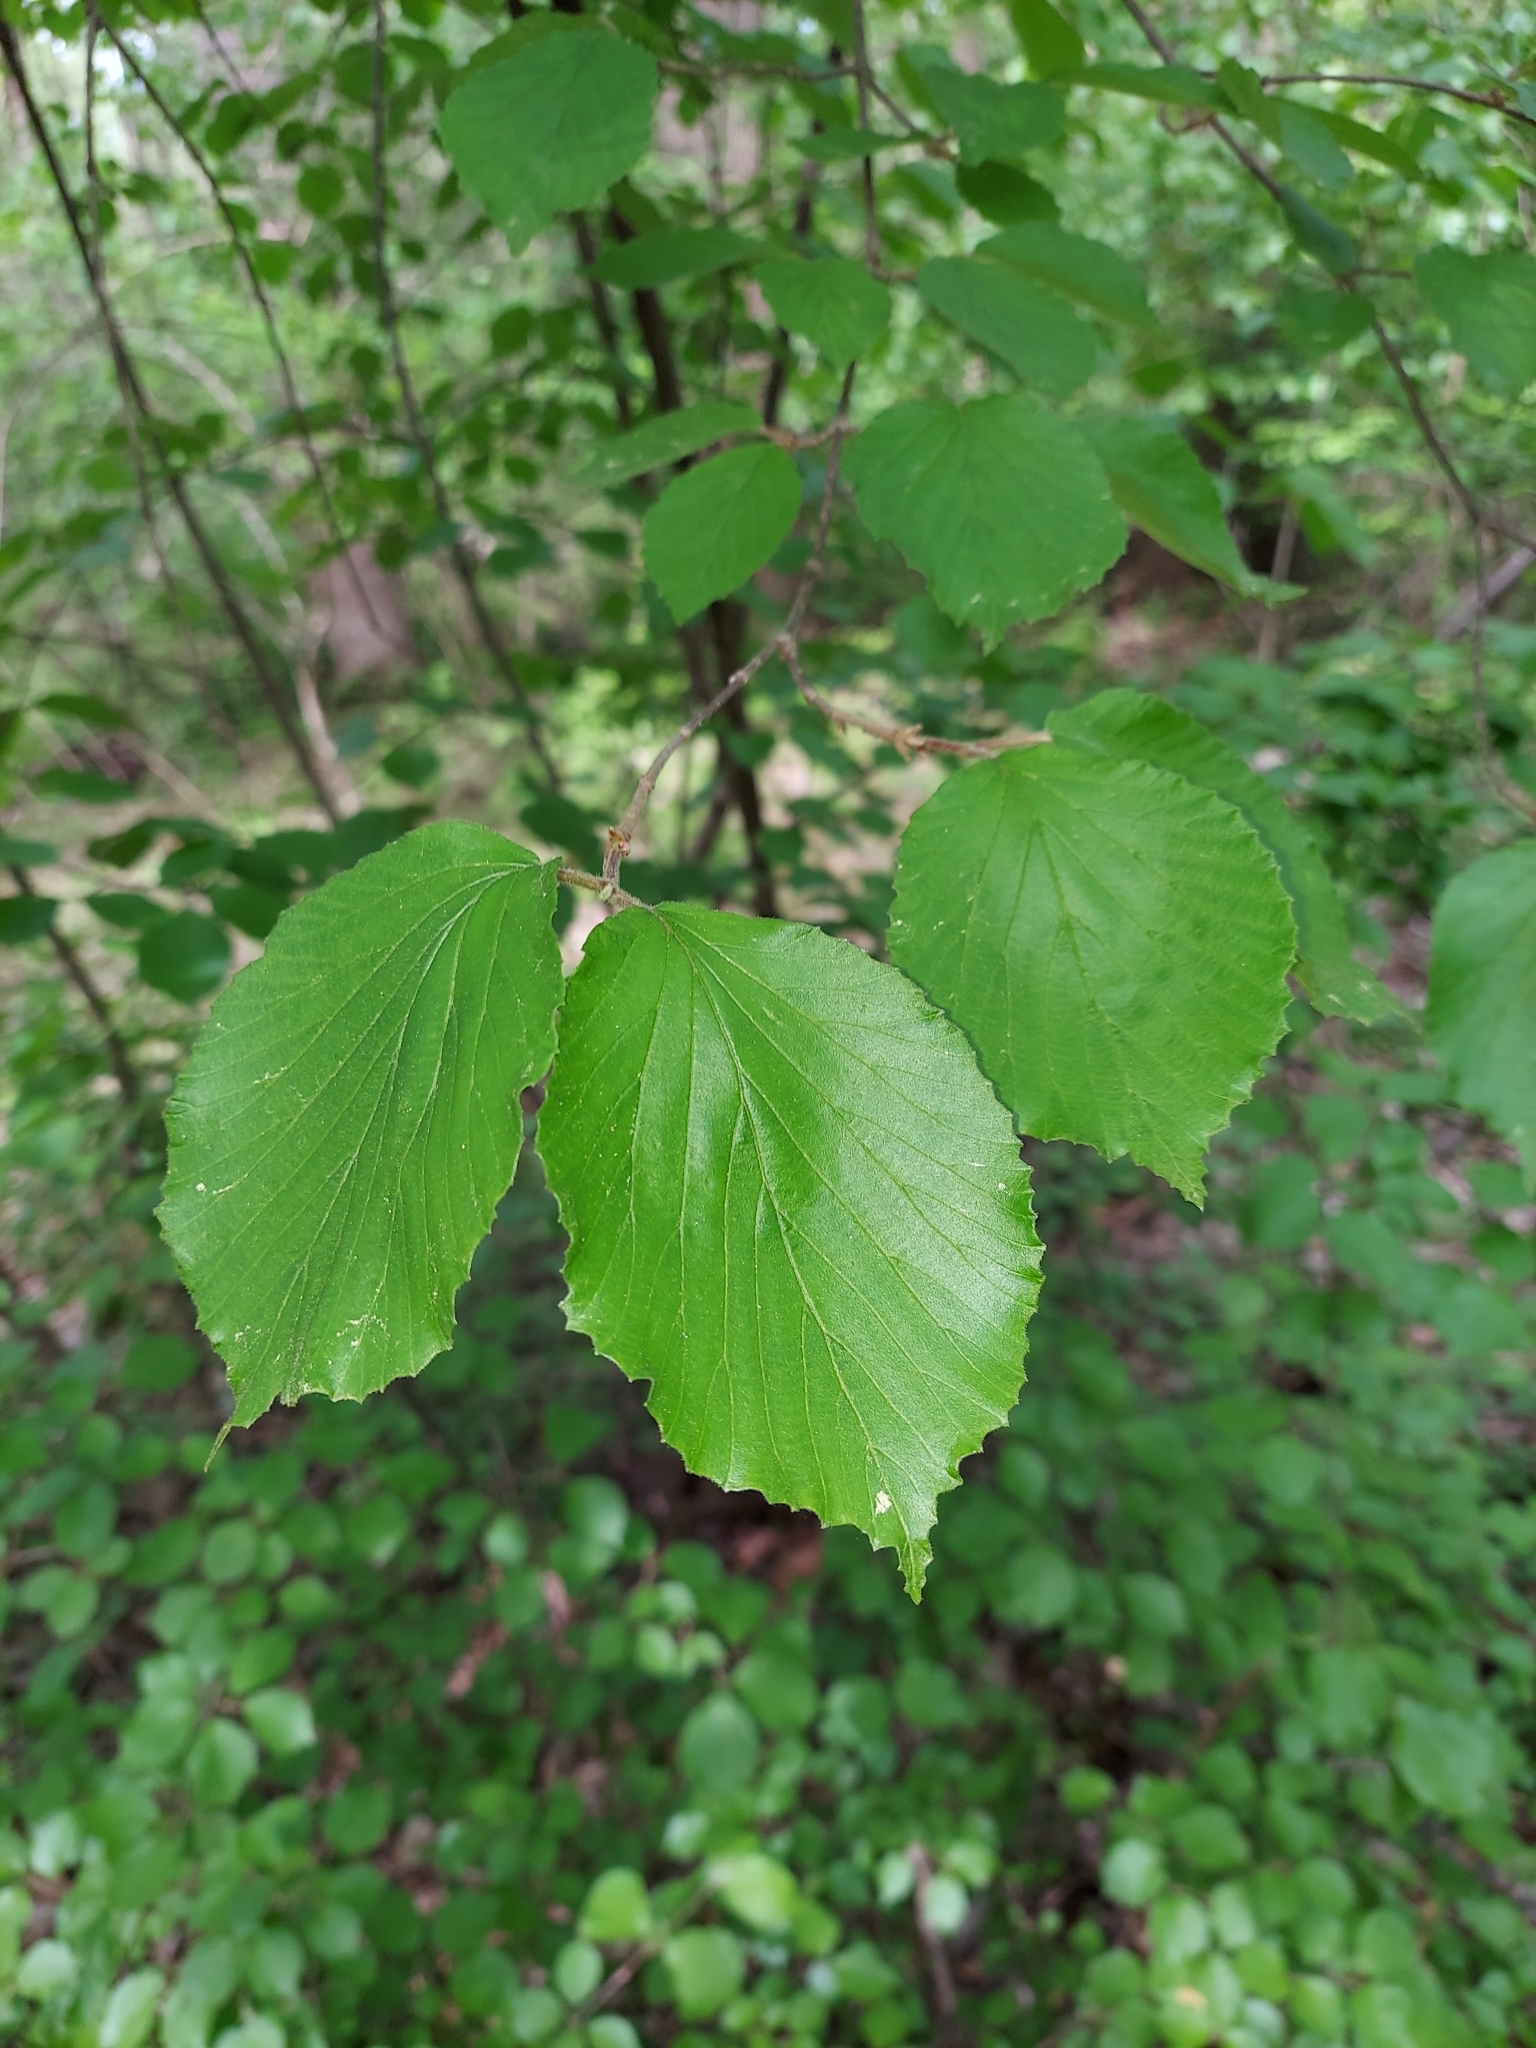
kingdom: Plantae
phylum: Tracheophyta
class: Magnoliopsida
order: Dipsacales
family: Viburnaceae
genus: Viburnum
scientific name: Viburnum dilatatum
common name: Linden arrowwood
